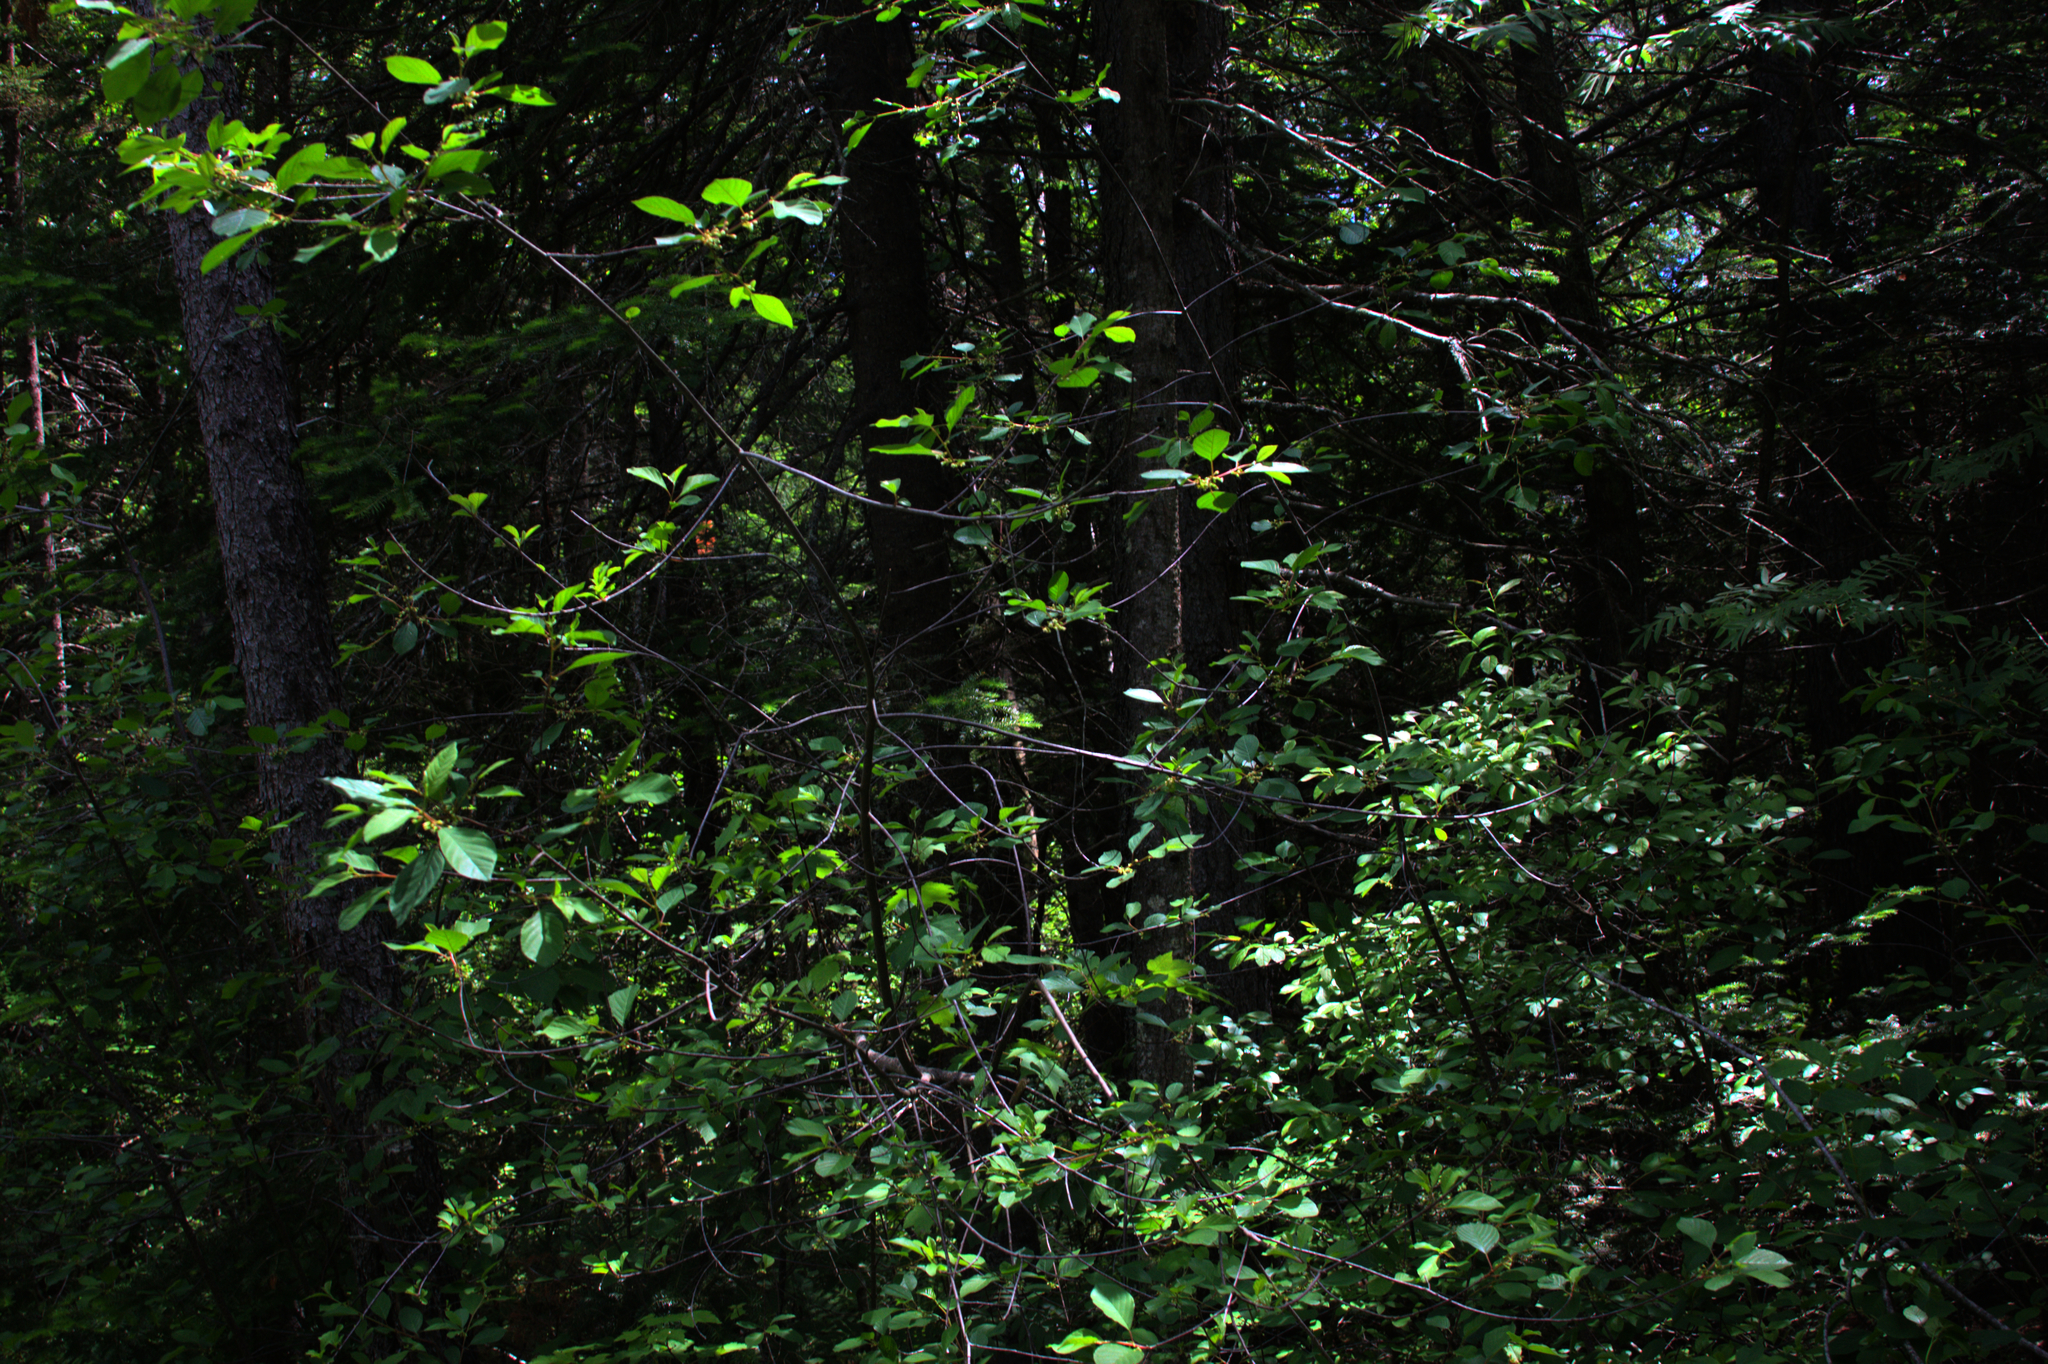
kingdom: Plantae
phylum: Tracheophyta
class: Magnoliopsida
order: Rosales
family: Rhamnaceae
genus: Frangula
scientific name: Frangula alnus
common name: Alder buckthorn
